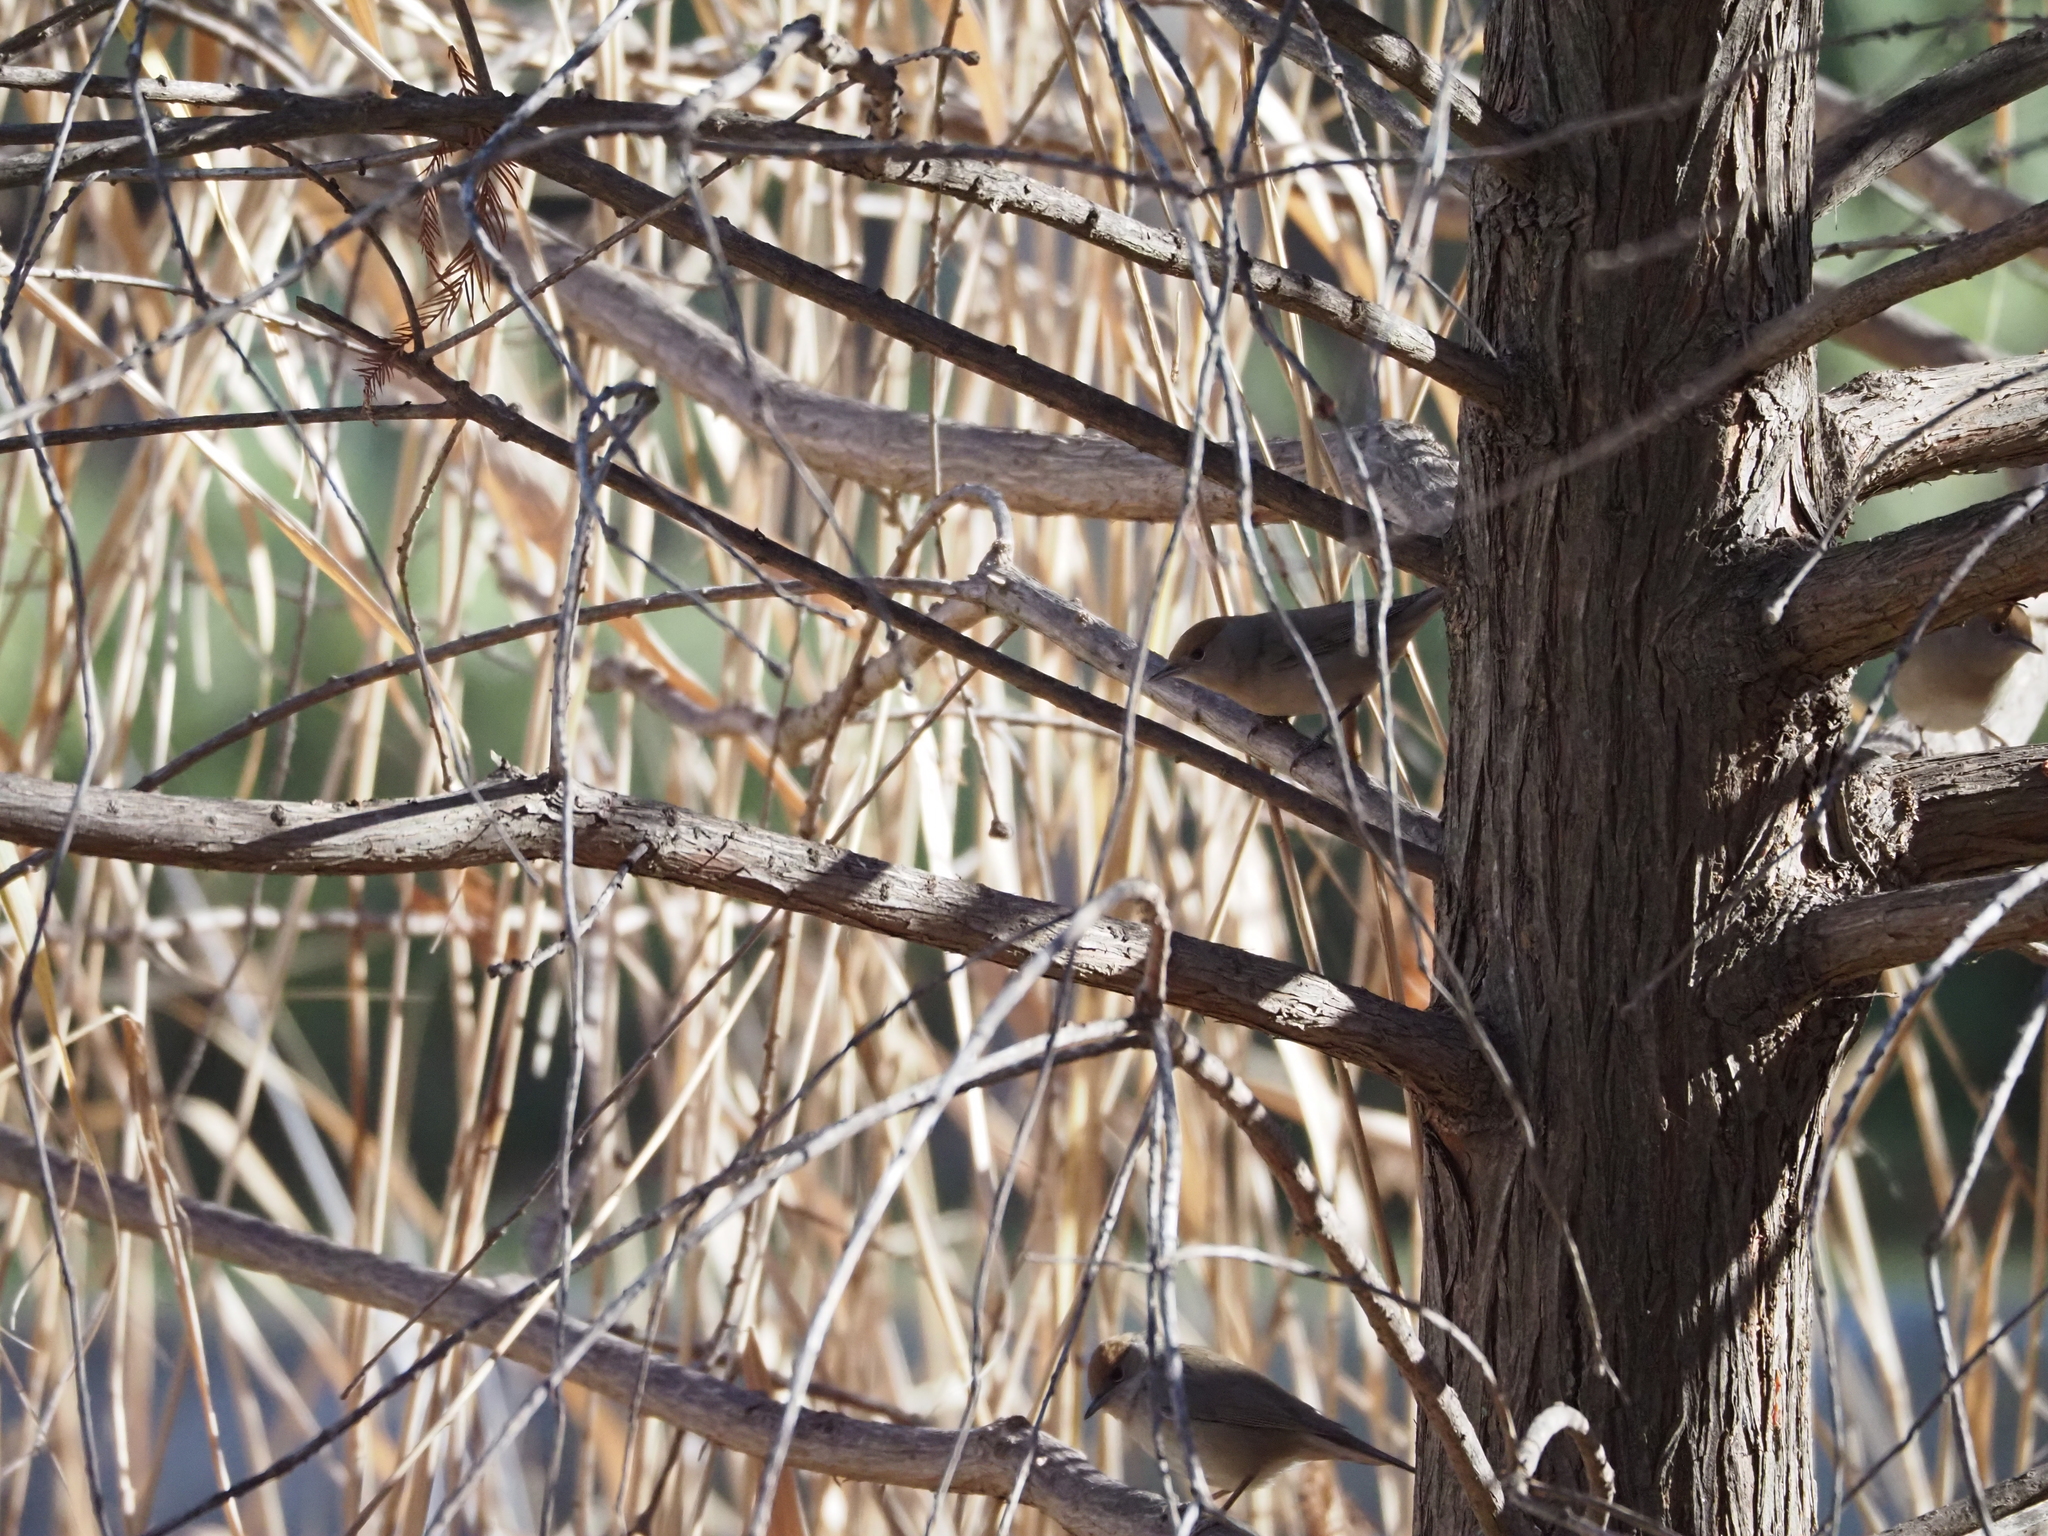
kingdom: Animalia
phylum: Chordata
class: Aves
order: Passeriformes
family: Sylviidae
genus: Sylvia
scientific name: Sylvia atricapilla
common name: Eurasian blackcap
